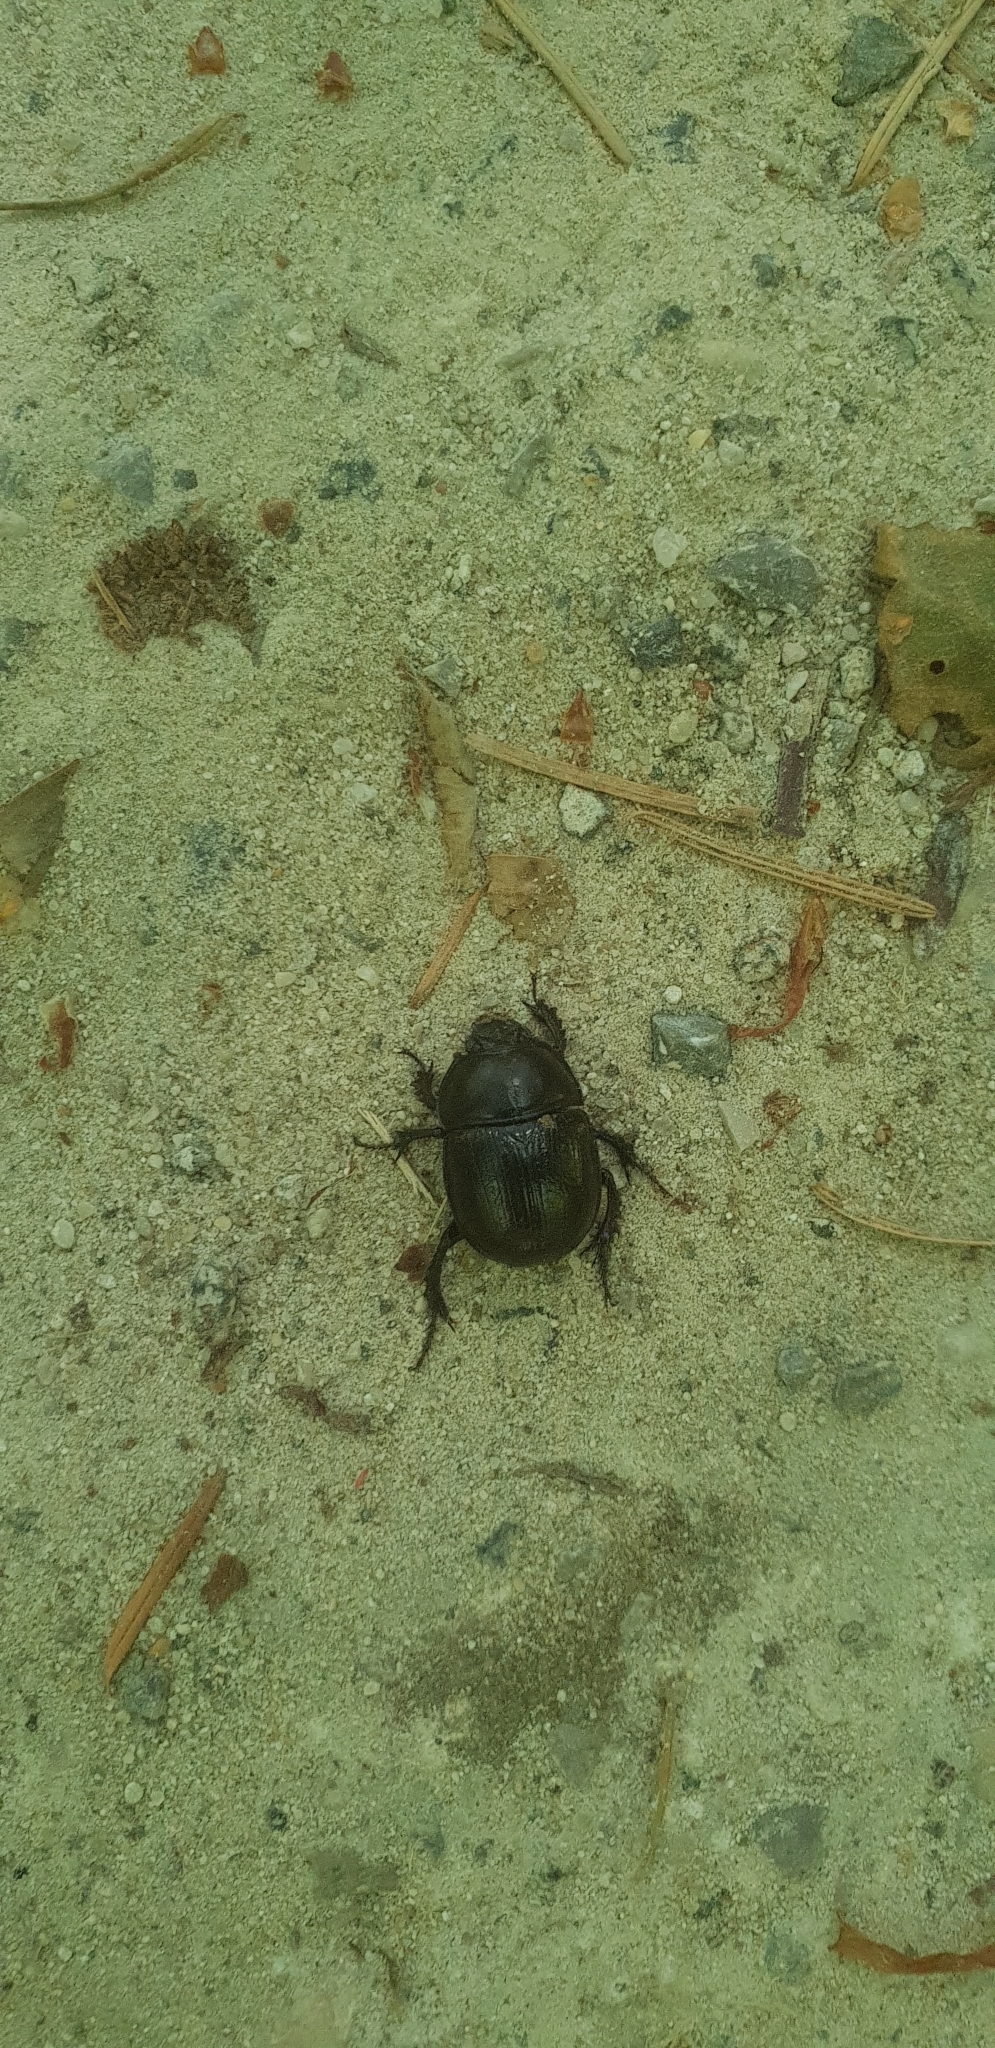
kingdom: Animalia
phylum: Arthropoda
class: Insecta
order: Coleoptera
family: Geotrupidae
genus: Anoplotrupes
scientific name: Anoplotrupes stercorosus
